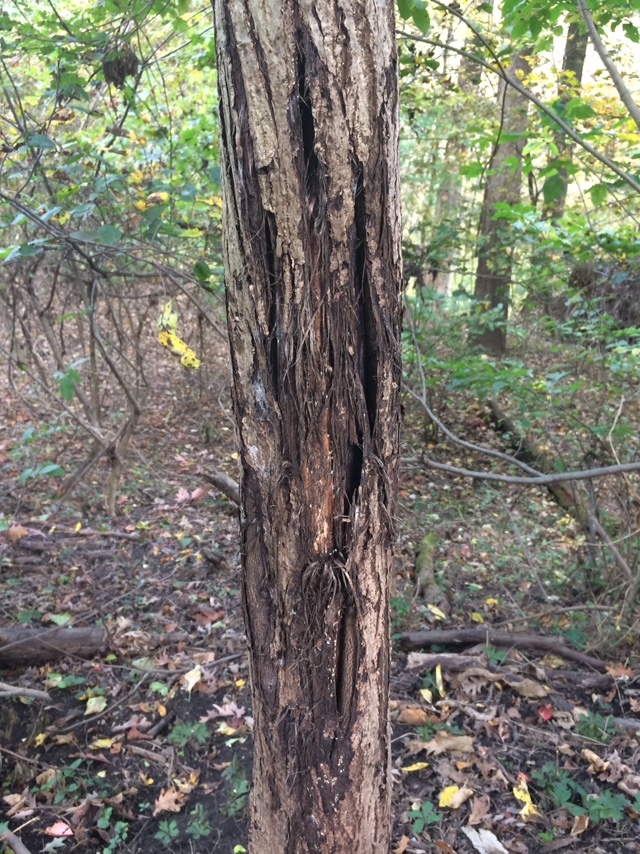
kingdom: Plantae
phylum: Tracheophyta
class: Magnoliopsida
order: Fagales
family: Juglandaceae
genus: Juglans
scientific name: Juglans cinerea
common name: Butternut
